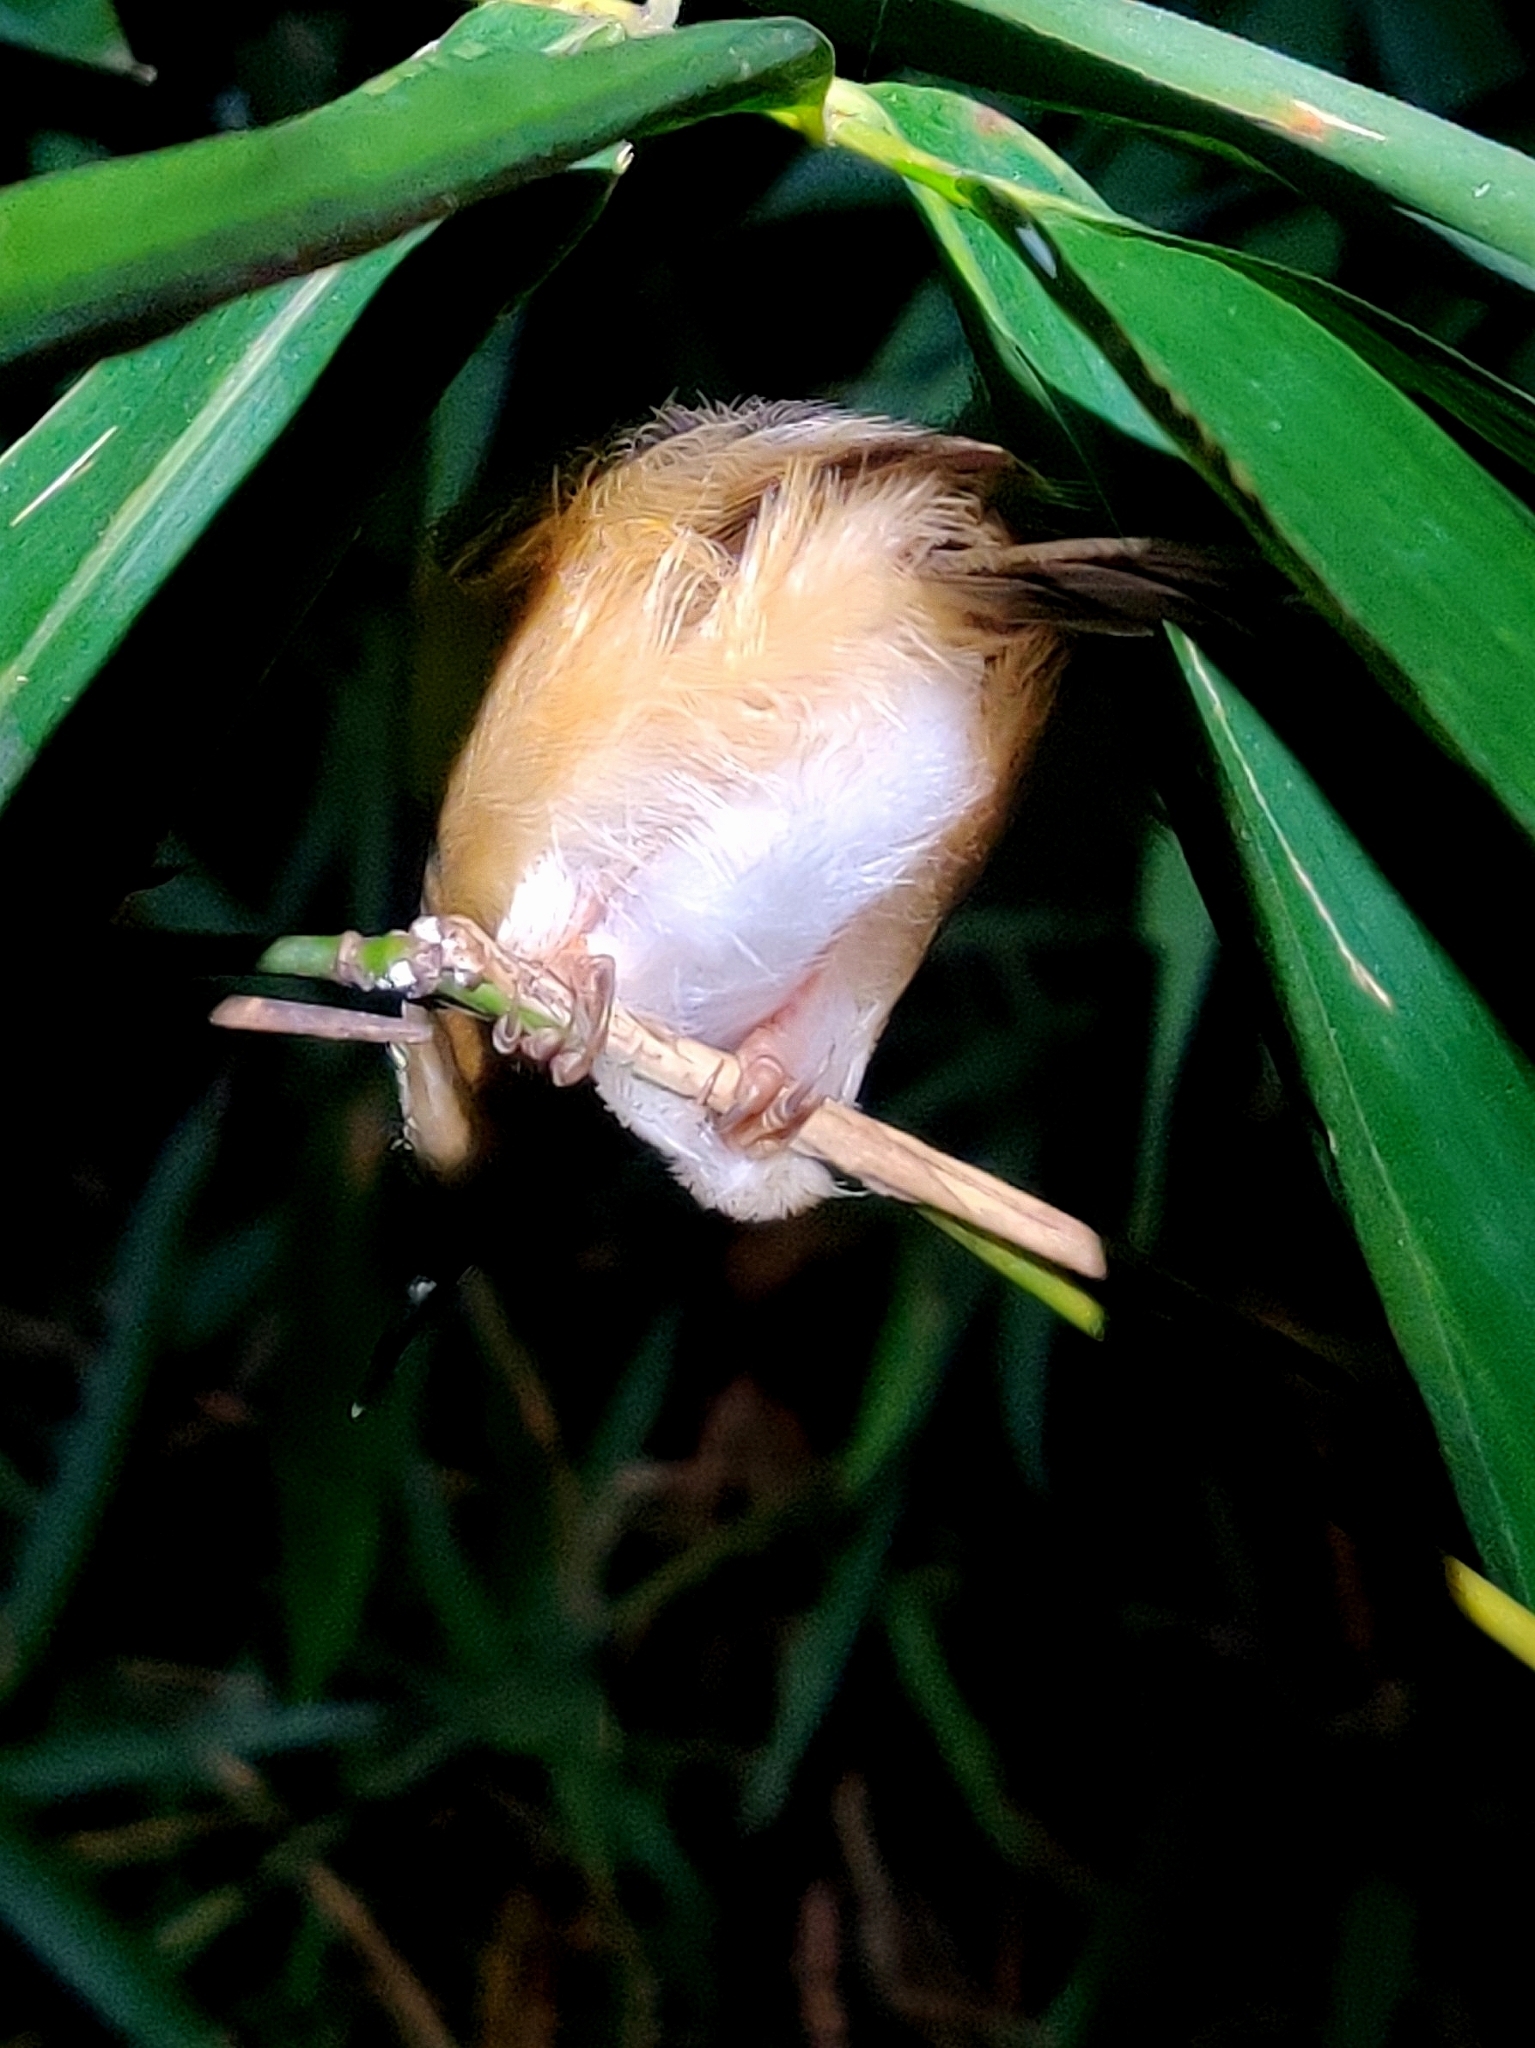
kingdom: Animalia
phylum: Chordata
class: Aves
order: Passeriformes
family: Cisticolidae
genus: Prinia
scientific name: Prinia socialis
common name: Ashy prinia
